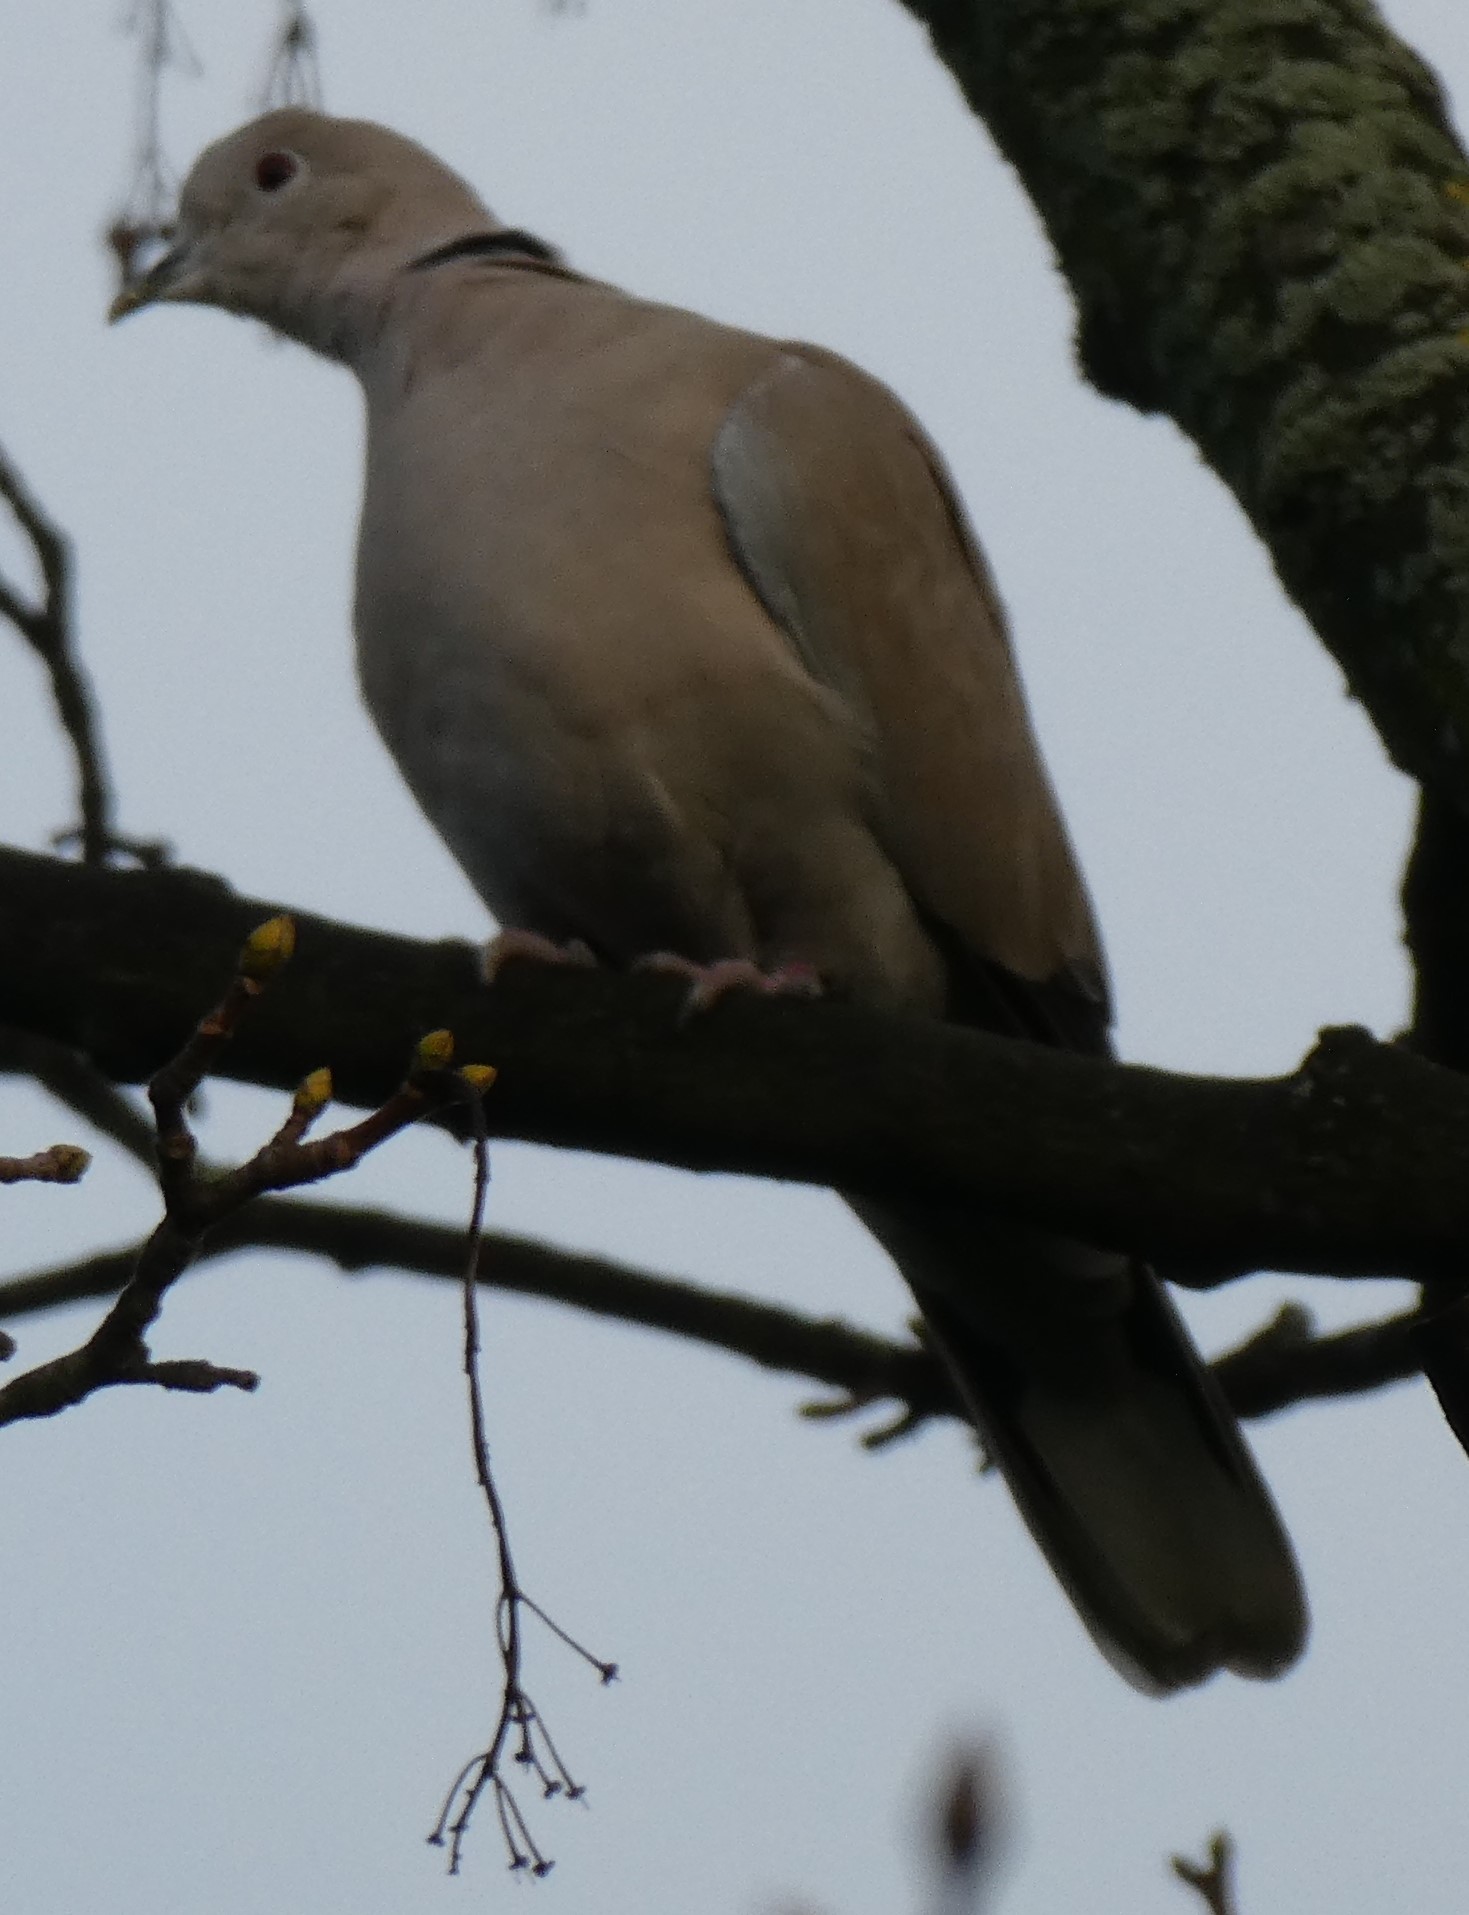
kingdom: Animalia
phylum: Chordata
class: Aves
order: Columbiformes
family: Columbidae
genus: Streptopelia
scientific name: Streptopelia decaocto
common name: Eurasian collared dove
